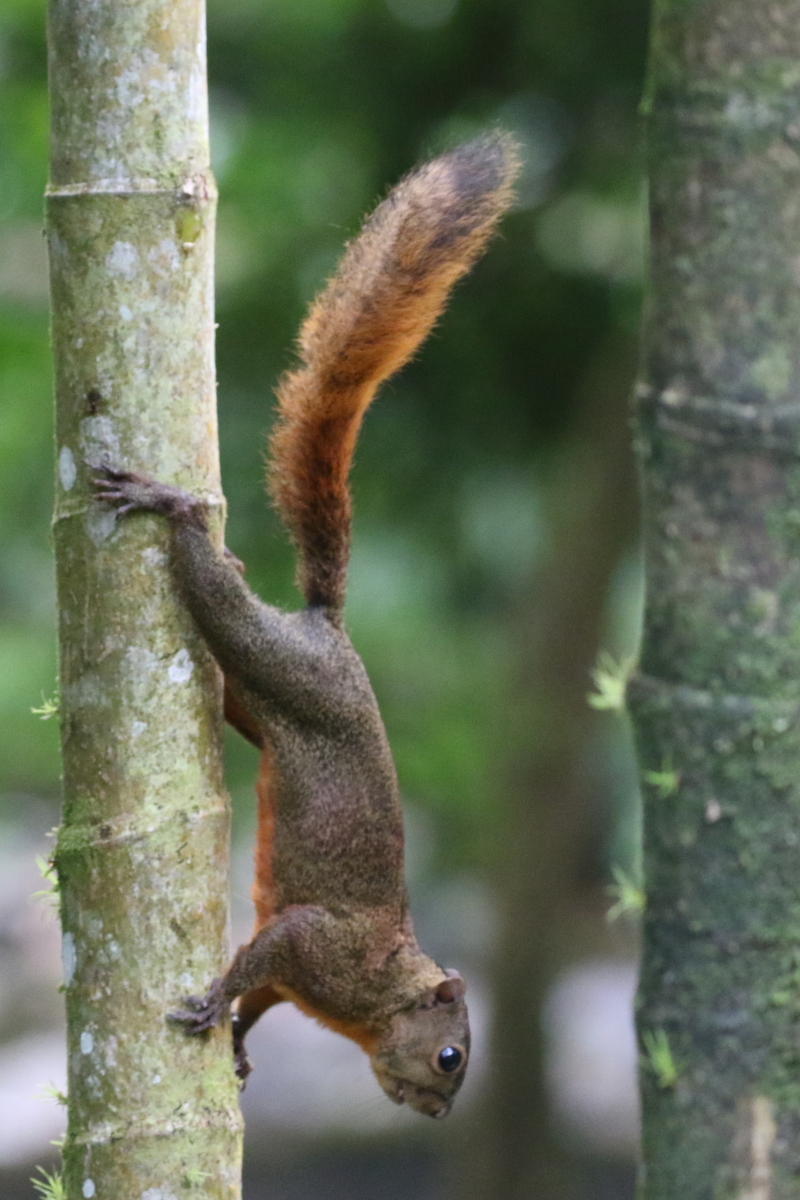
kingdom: Animalia
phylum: Chordata
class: Mammalia
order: Rodentia
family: Sciuridae
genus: Sciurus
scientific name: Sciurus granatensis
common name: Red-tailed squirrel
